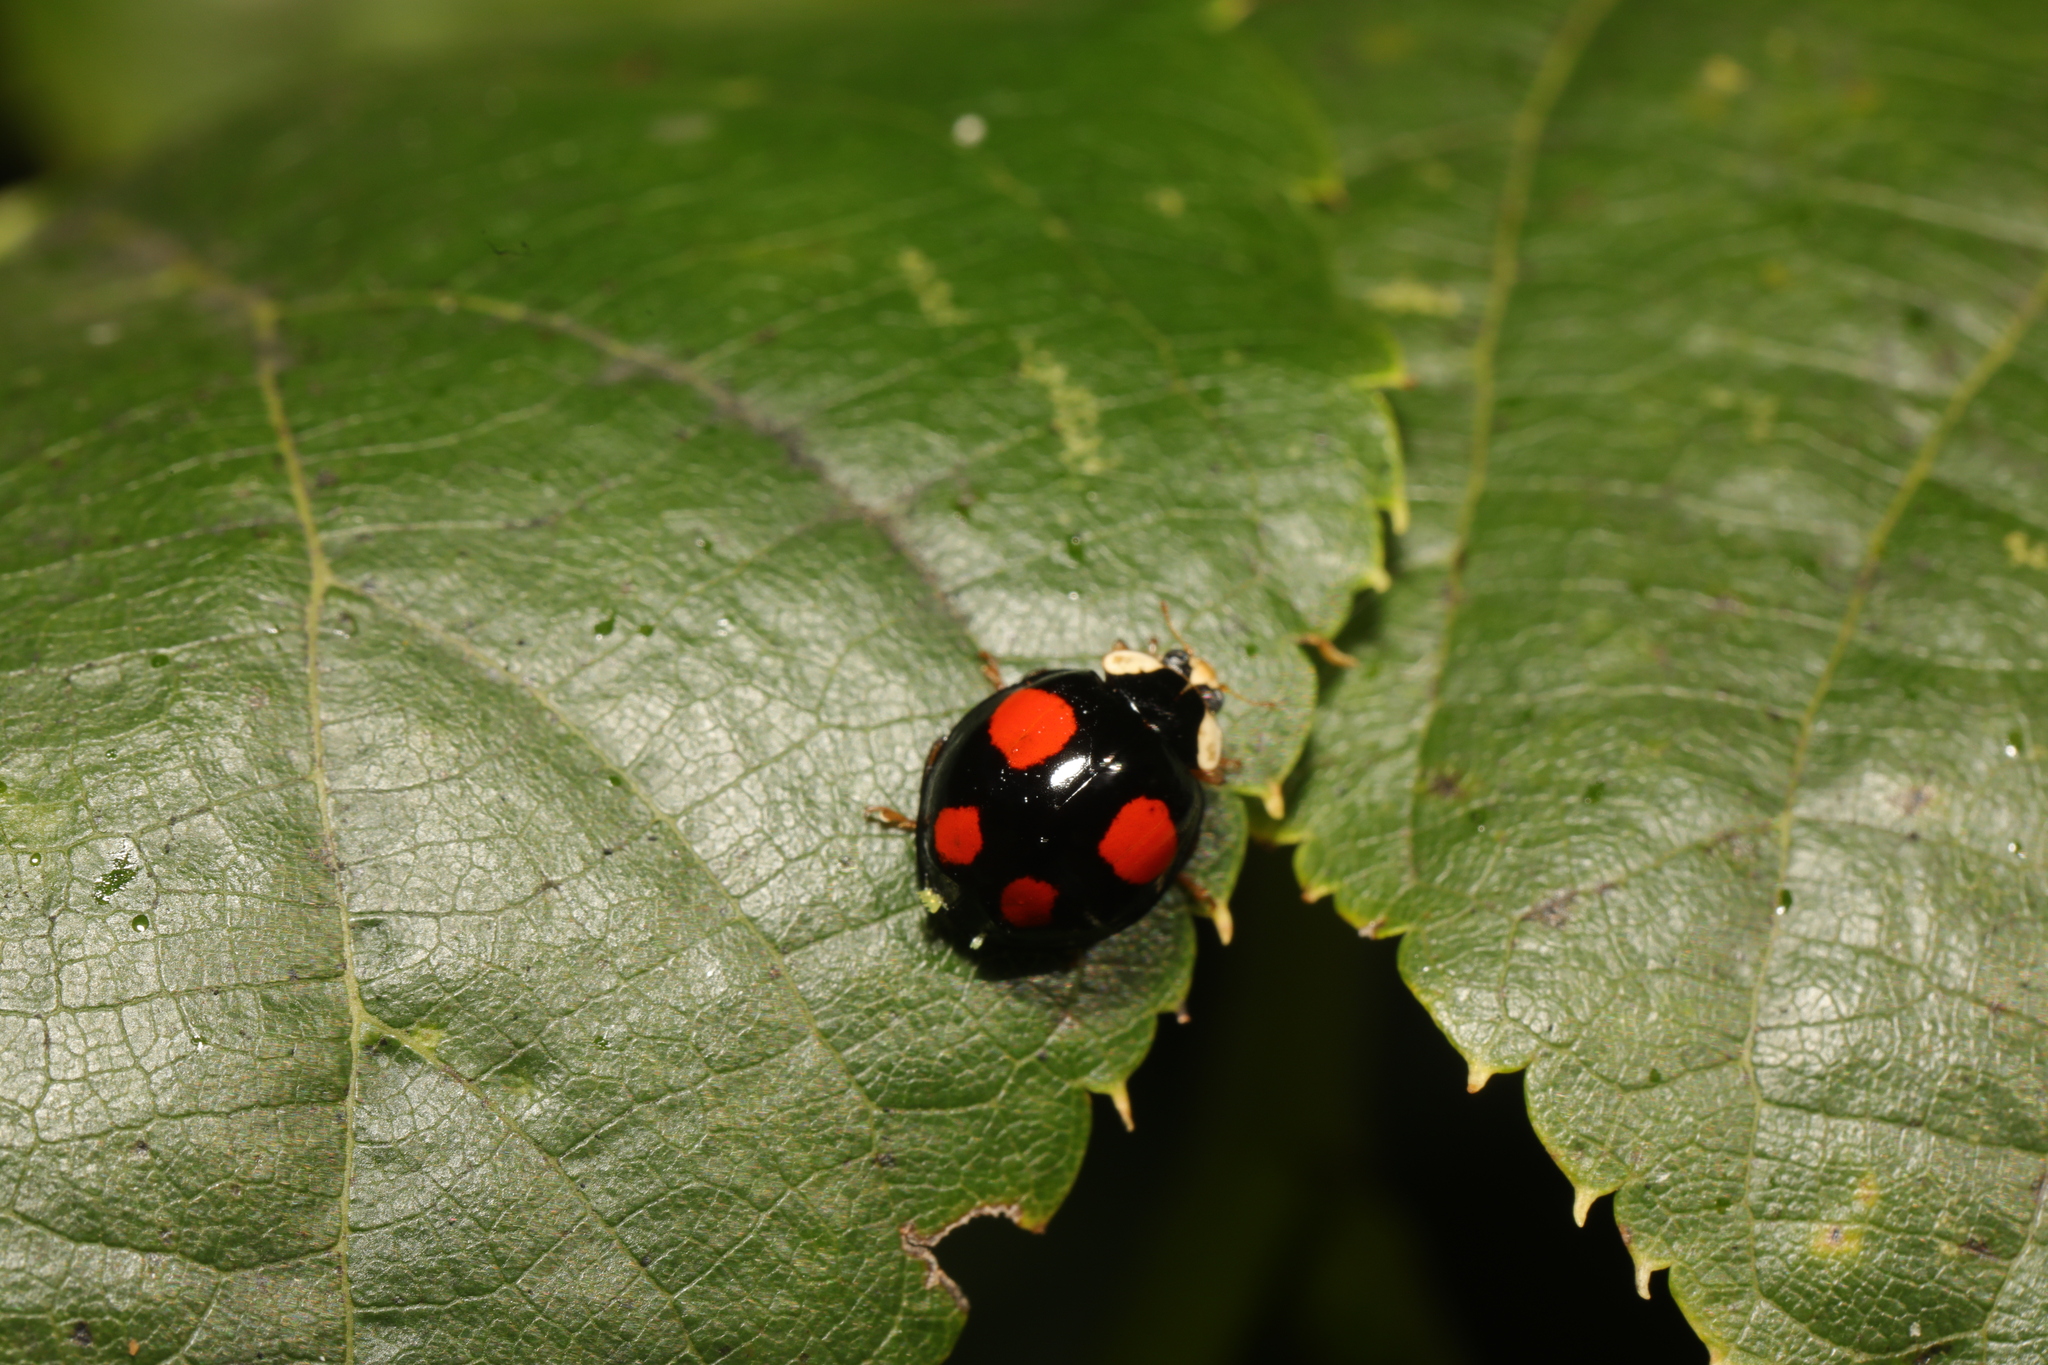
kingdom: Animalia
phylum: Arthropoda
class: Insecta
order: Coleoptera
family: Coccinellidae
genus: Harmonia
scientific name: Harmonia axyridis
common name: Harlequin ladybird
